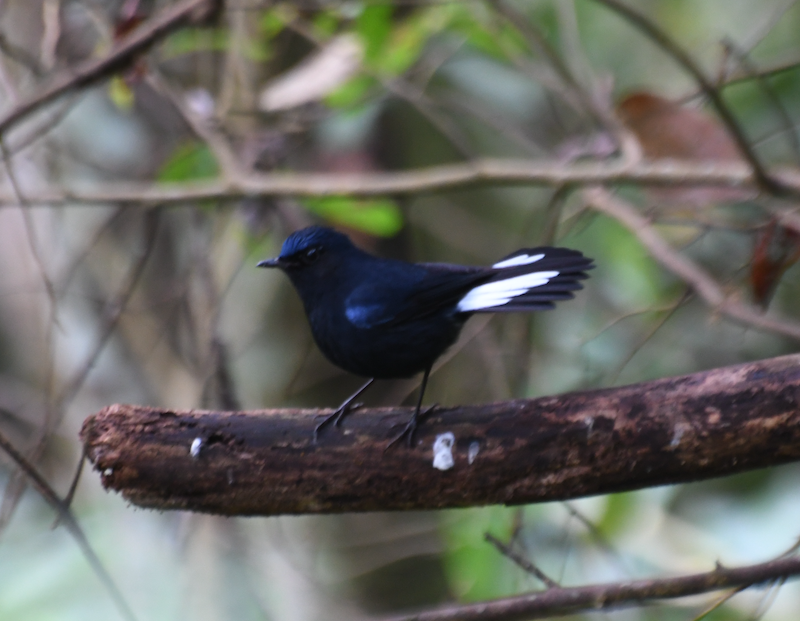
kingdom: Animalia
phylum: Chordata
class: Aves
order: Passeriformes
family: Muscicapidae
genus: Myiomela
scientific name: Myiomela leucura
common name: White-tailed robin
